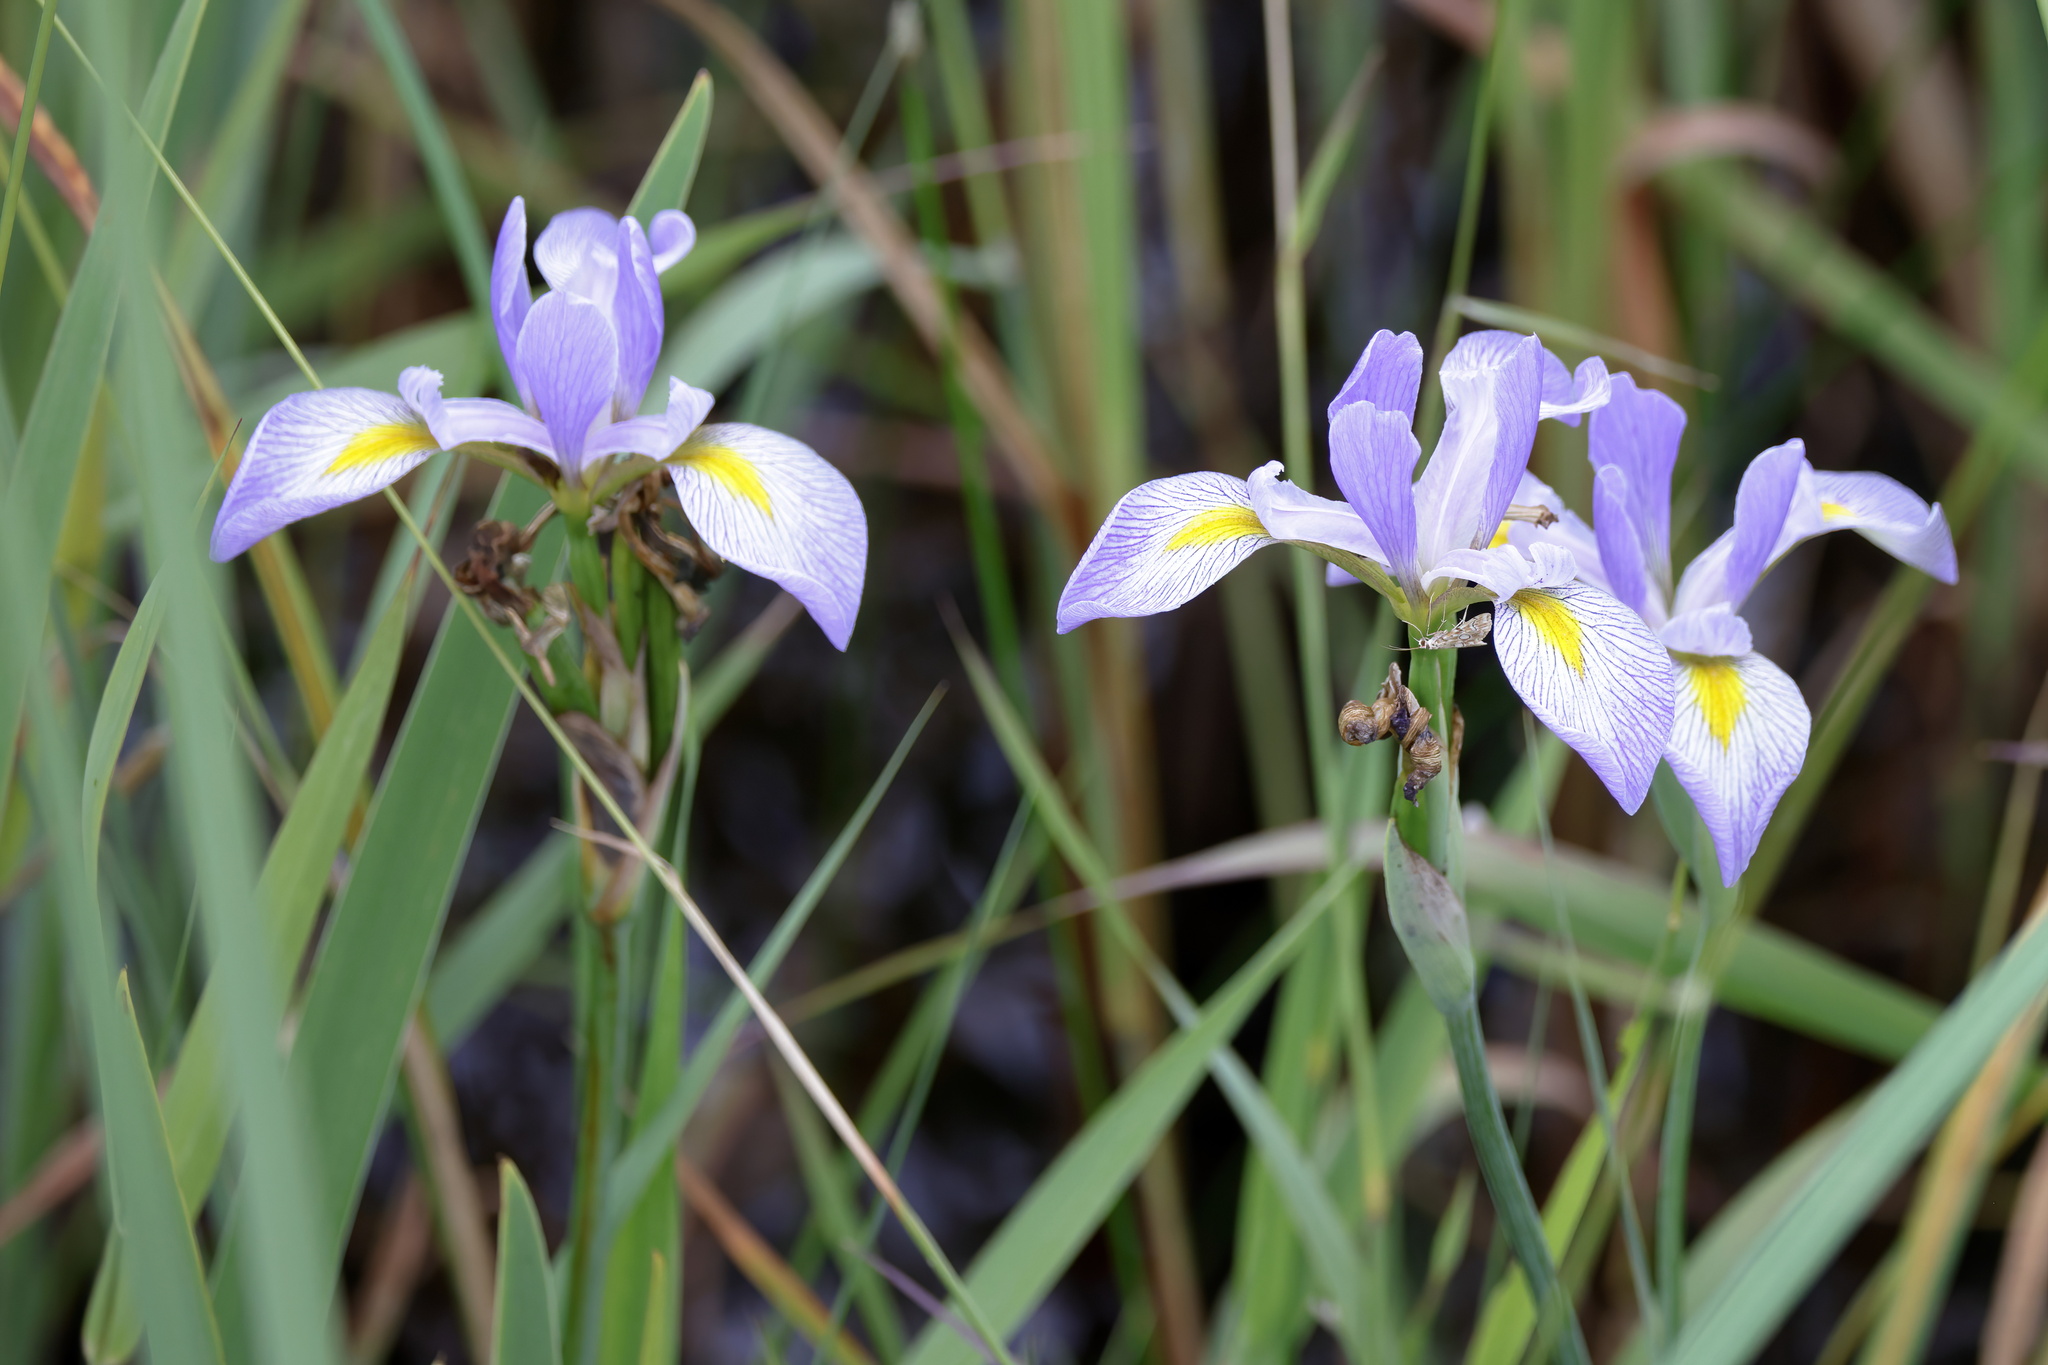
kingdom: Plantae
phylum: Tracheophyta
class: Liliopsida
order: Asparagales
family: Iridaceae
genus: Iris
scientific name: Iris virginica
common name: Southern blue flag
